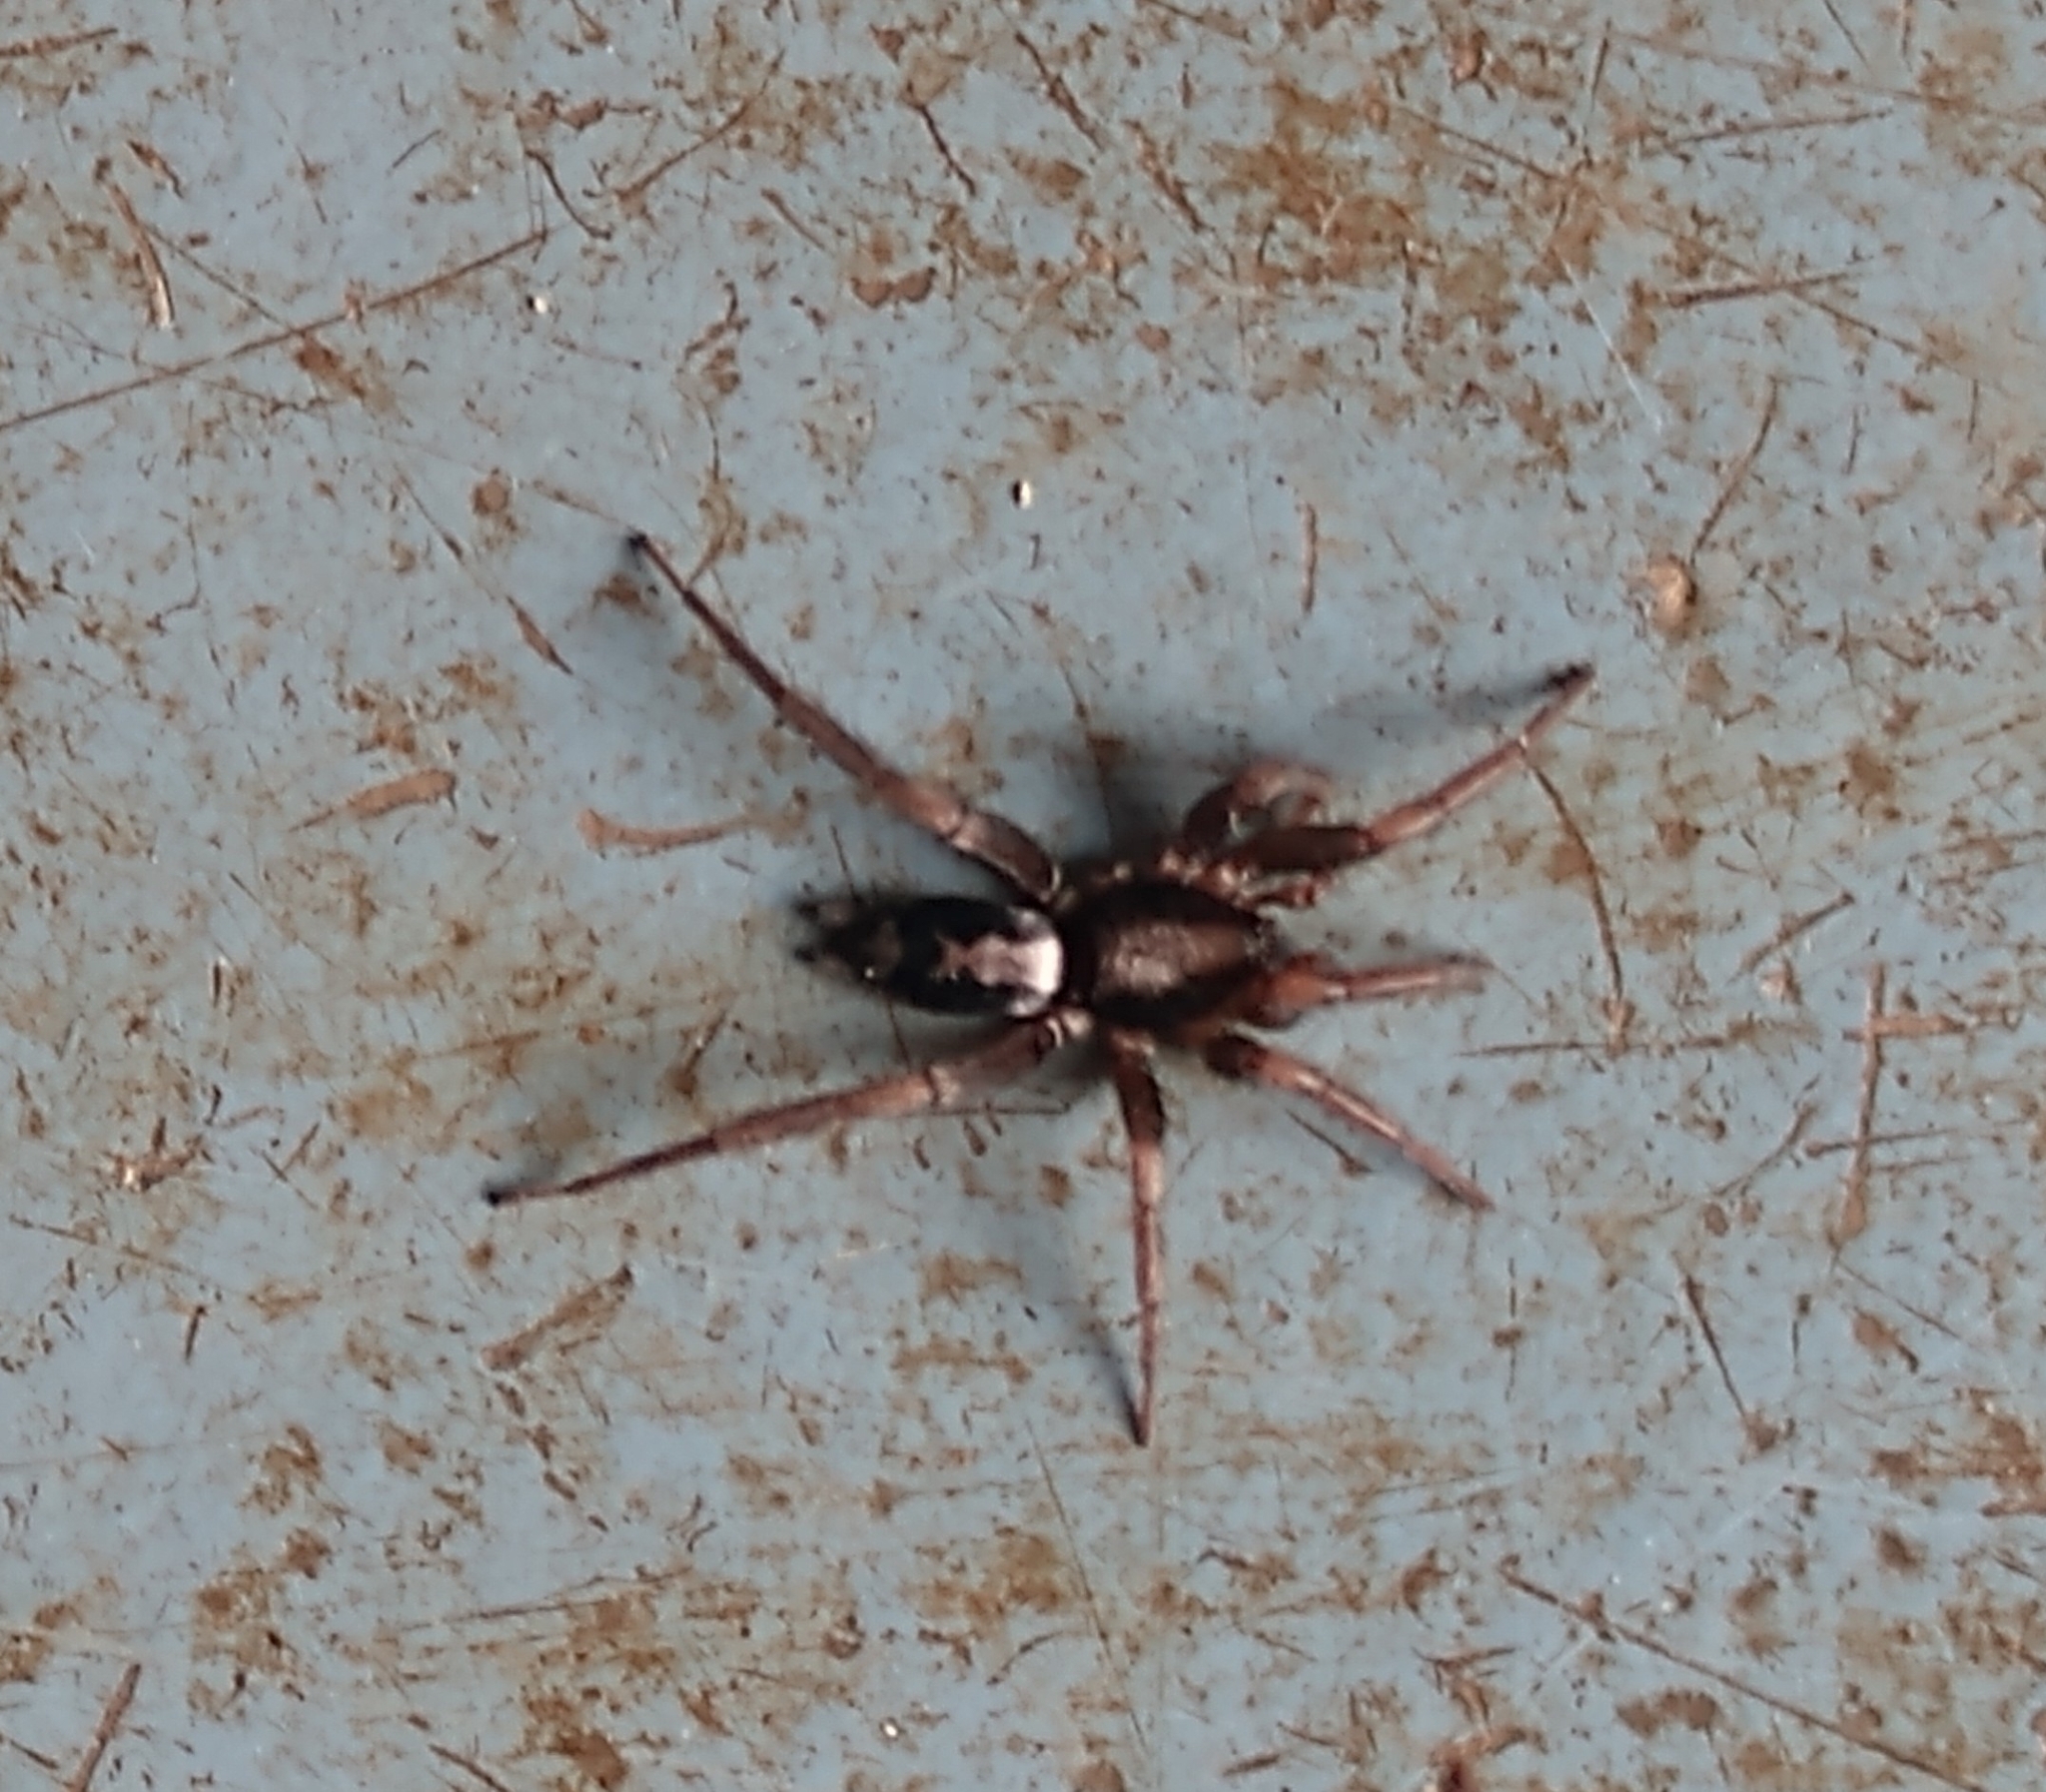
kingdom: Animalia
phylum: Arthropoda
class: Arachnida
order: Araneae
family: Gnaphosidae
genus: Herpyllus
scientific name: Herpyllus ecclesiasticus
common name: Eastern parson spider
